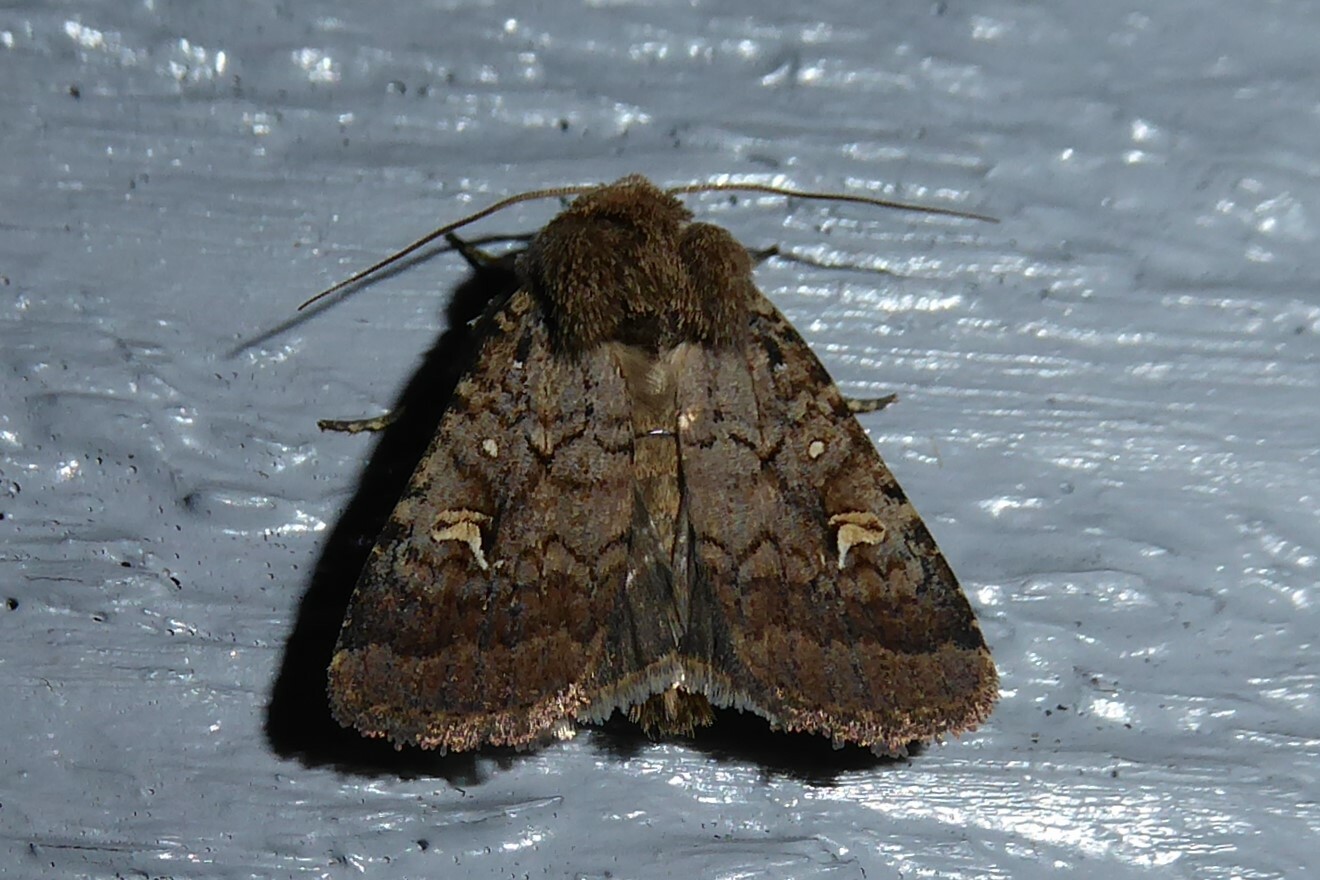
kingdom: Animalia
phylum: Arthropoda
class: Insecta
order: Lepidoptera
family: Noctuidae
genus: Proteuxoa
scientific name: Proteuxoa tetronycha
